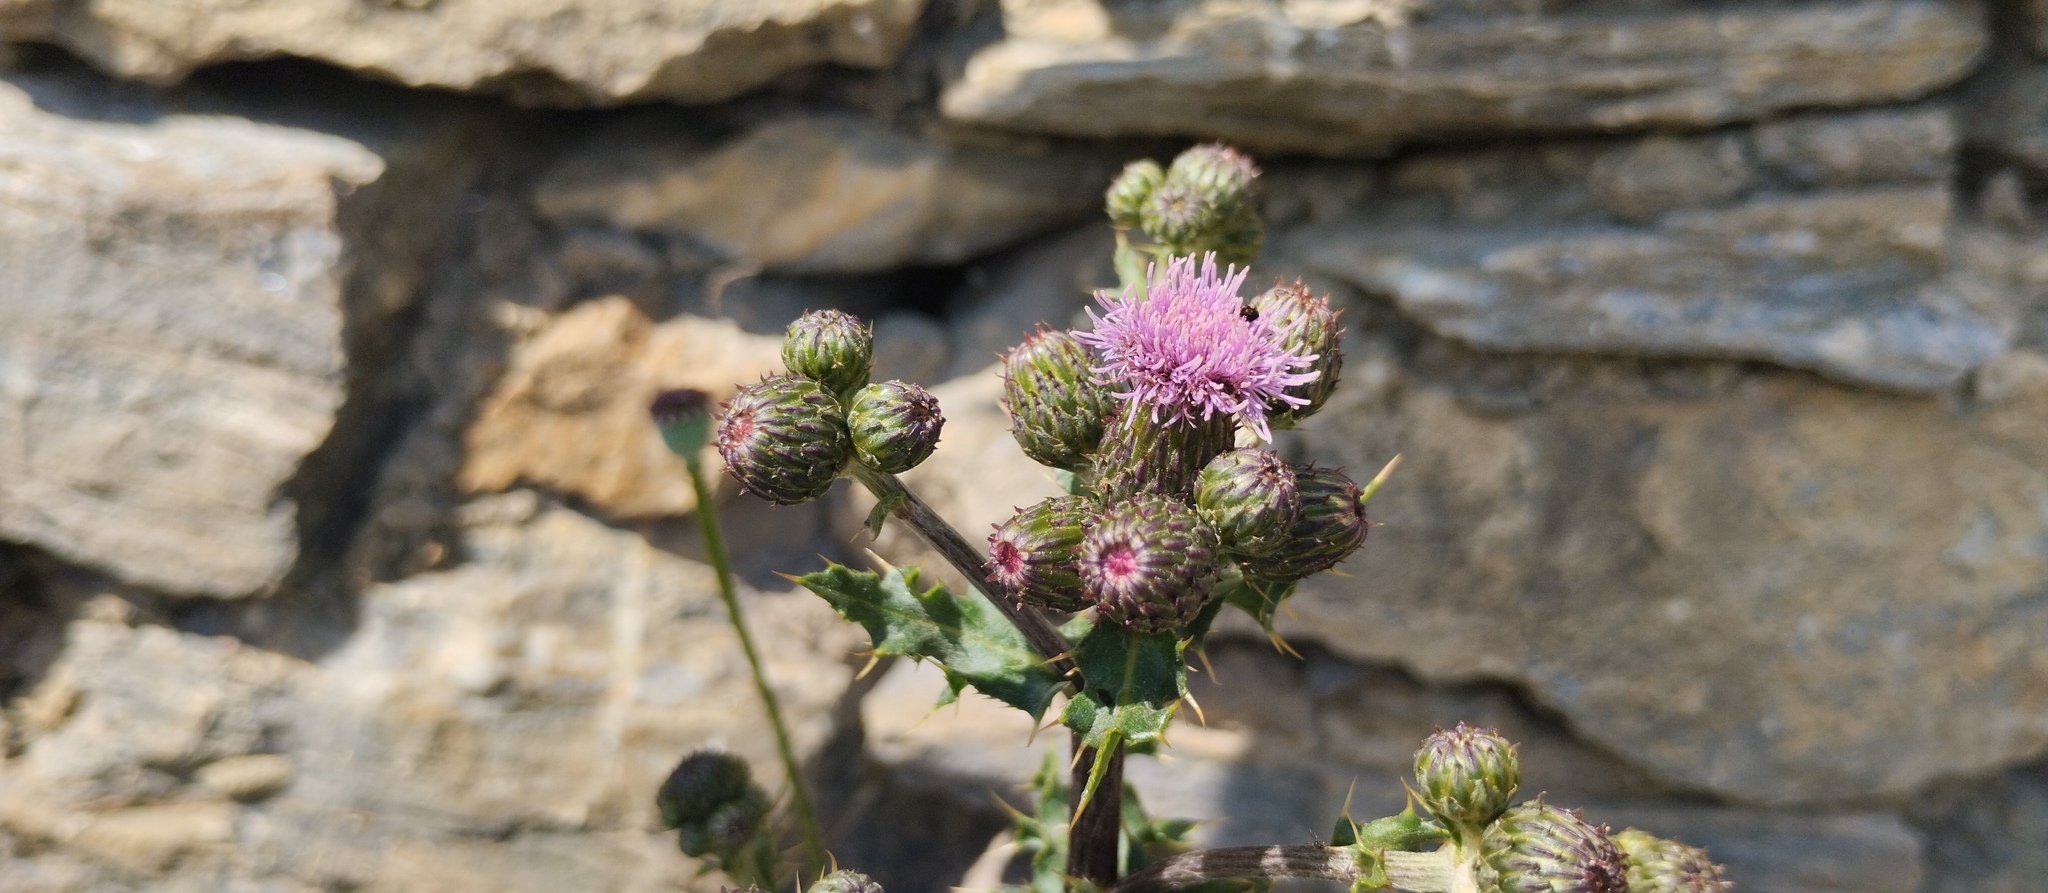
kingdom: Plantae
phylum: Tracheophyta
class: Magnoliopsida
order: Asterales
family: Asteraceae
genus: Cirsium
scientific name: Cirsium arvense
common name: Creeping thistle
